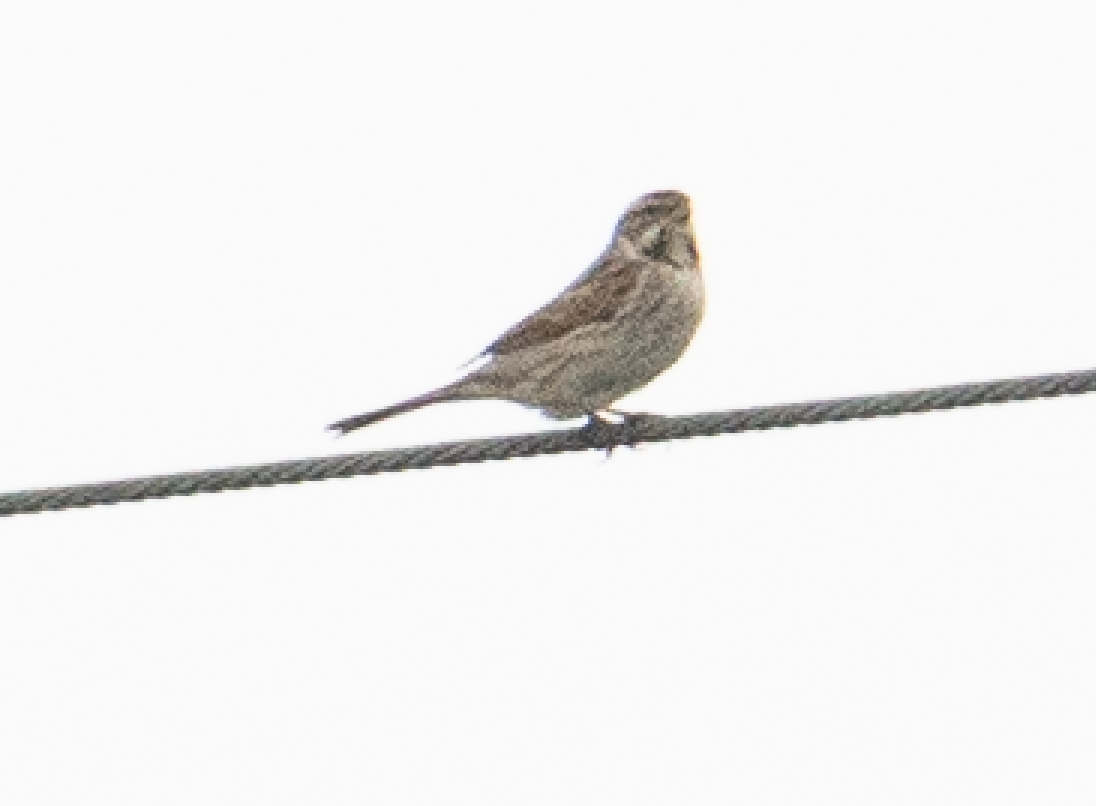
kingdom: Animalia
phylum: Chordata
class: Aves
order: Passeriformes
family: Emberizidae
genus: Emberiza
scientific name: Emberiza schoeniclus
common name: Reed bunting
